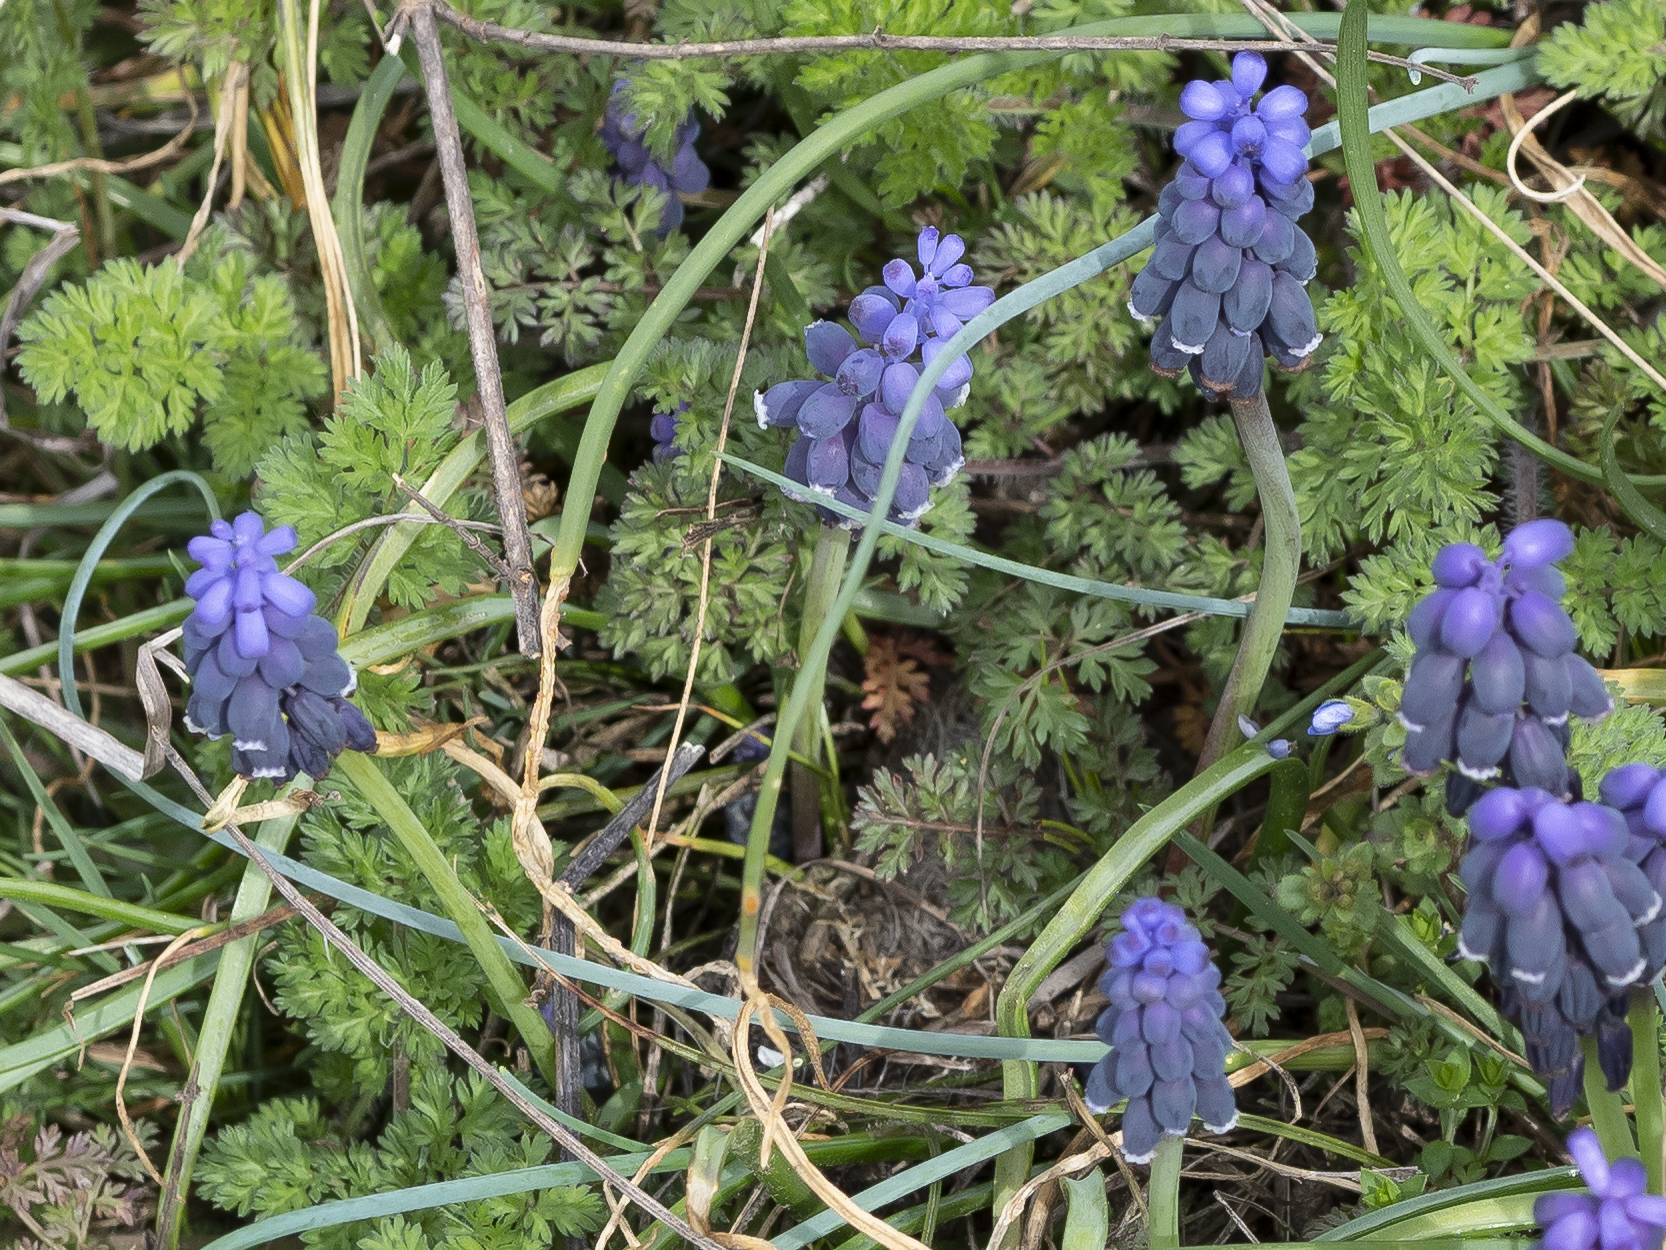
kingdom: Plantae
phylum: Tracheophyta
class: Liliopsida
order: Asparagales
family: Asparagaceae
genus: Muscari
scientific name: Muscari neglectum
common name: Grape-hyacinth
